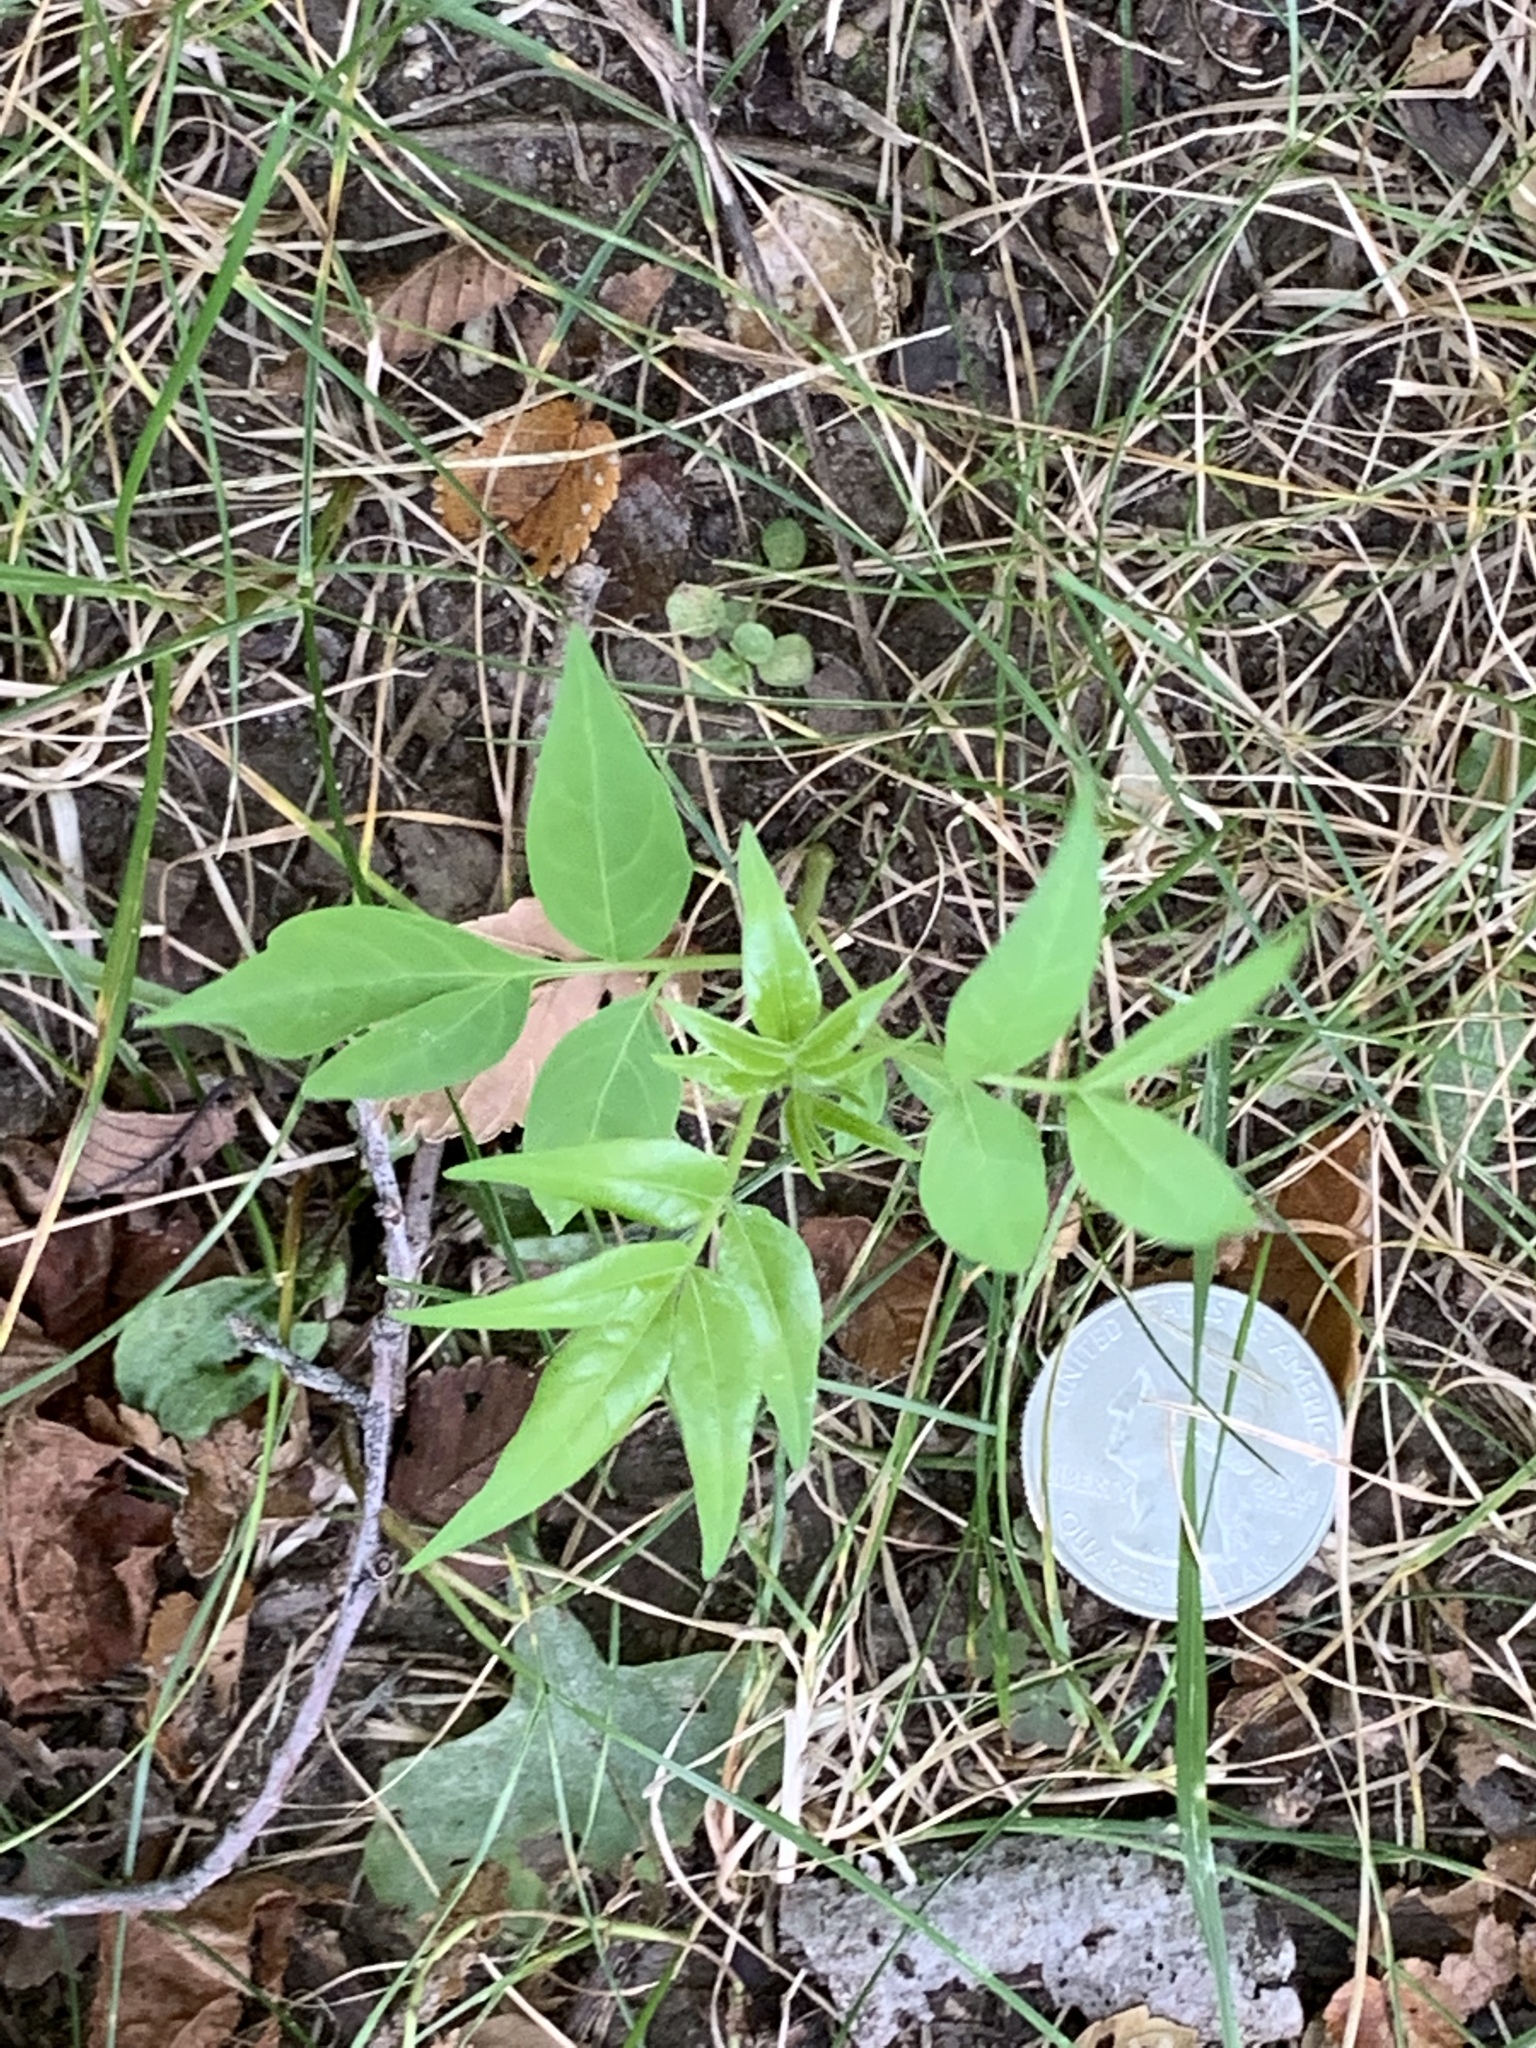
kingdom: Plantae
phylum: Tracheophyta
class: Magnoliopsida
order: Sapindales
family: Simaroubaceae
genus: Ailanthus
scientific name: Ailanthus altissima
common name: Tree-of-heaven
